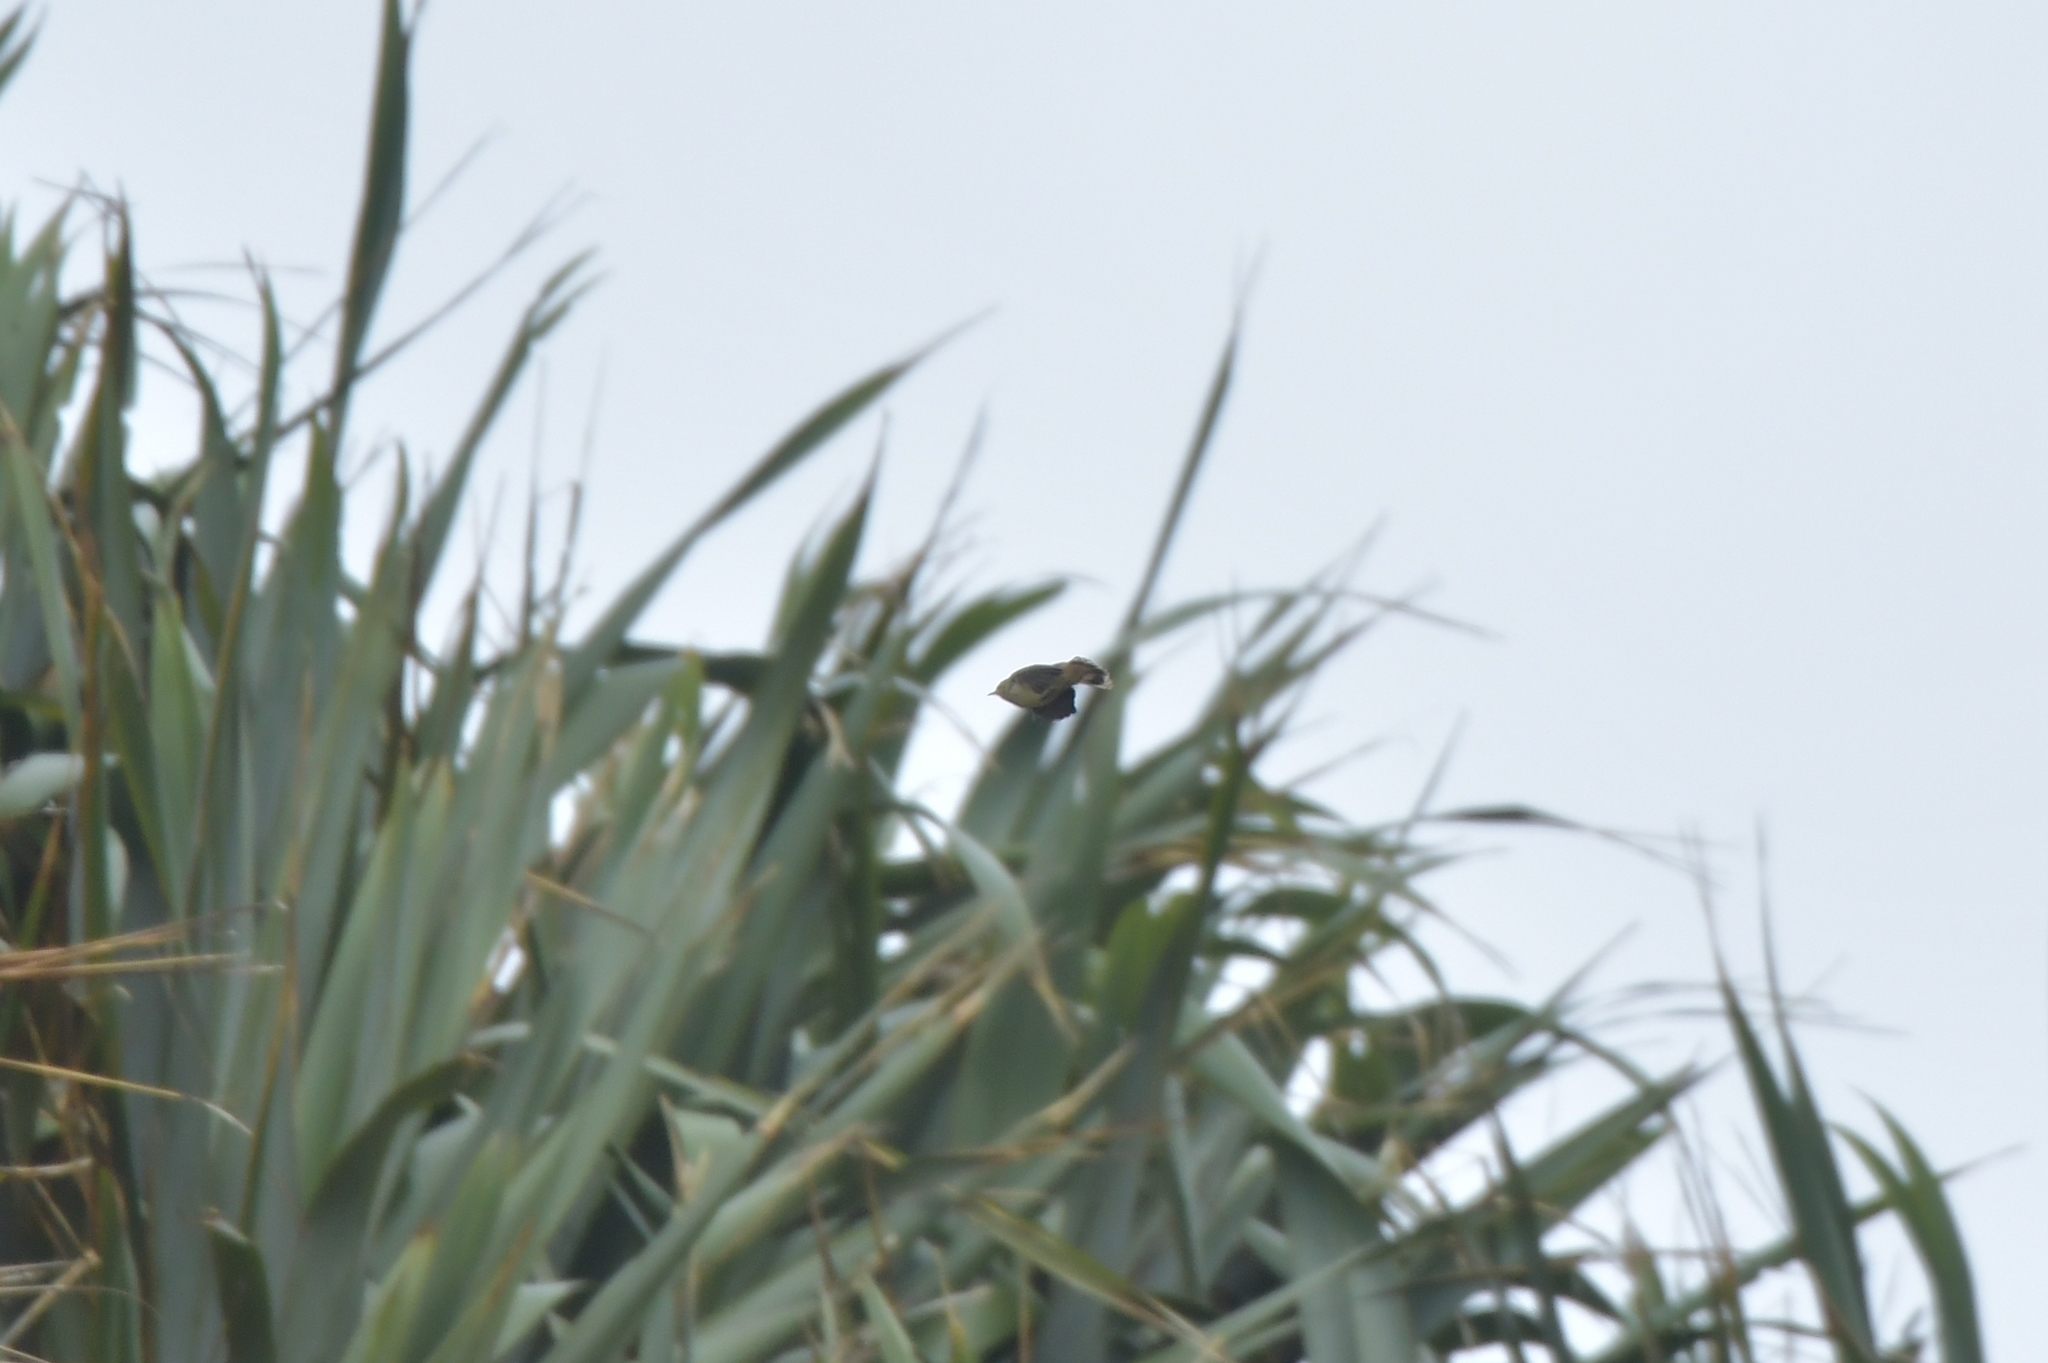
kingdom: Animalia
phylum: Chordata
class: Aves
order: Passeriformes
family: Acanthizidae
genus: Gerygone
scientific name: Gerygone albofrontata
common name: Chatham gerygone
